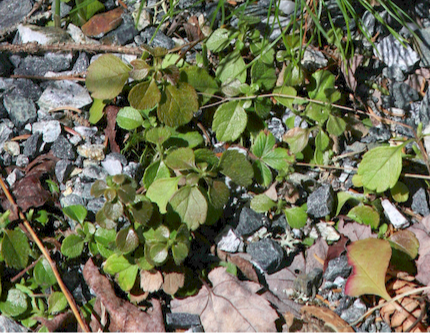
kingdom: Plantae
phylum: Tracheophyta
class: Magnoliopsida
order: Dipsacales
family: Caprifoliaceae
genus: Linnaea
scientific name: Linnaea borealis
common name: Twinflower
